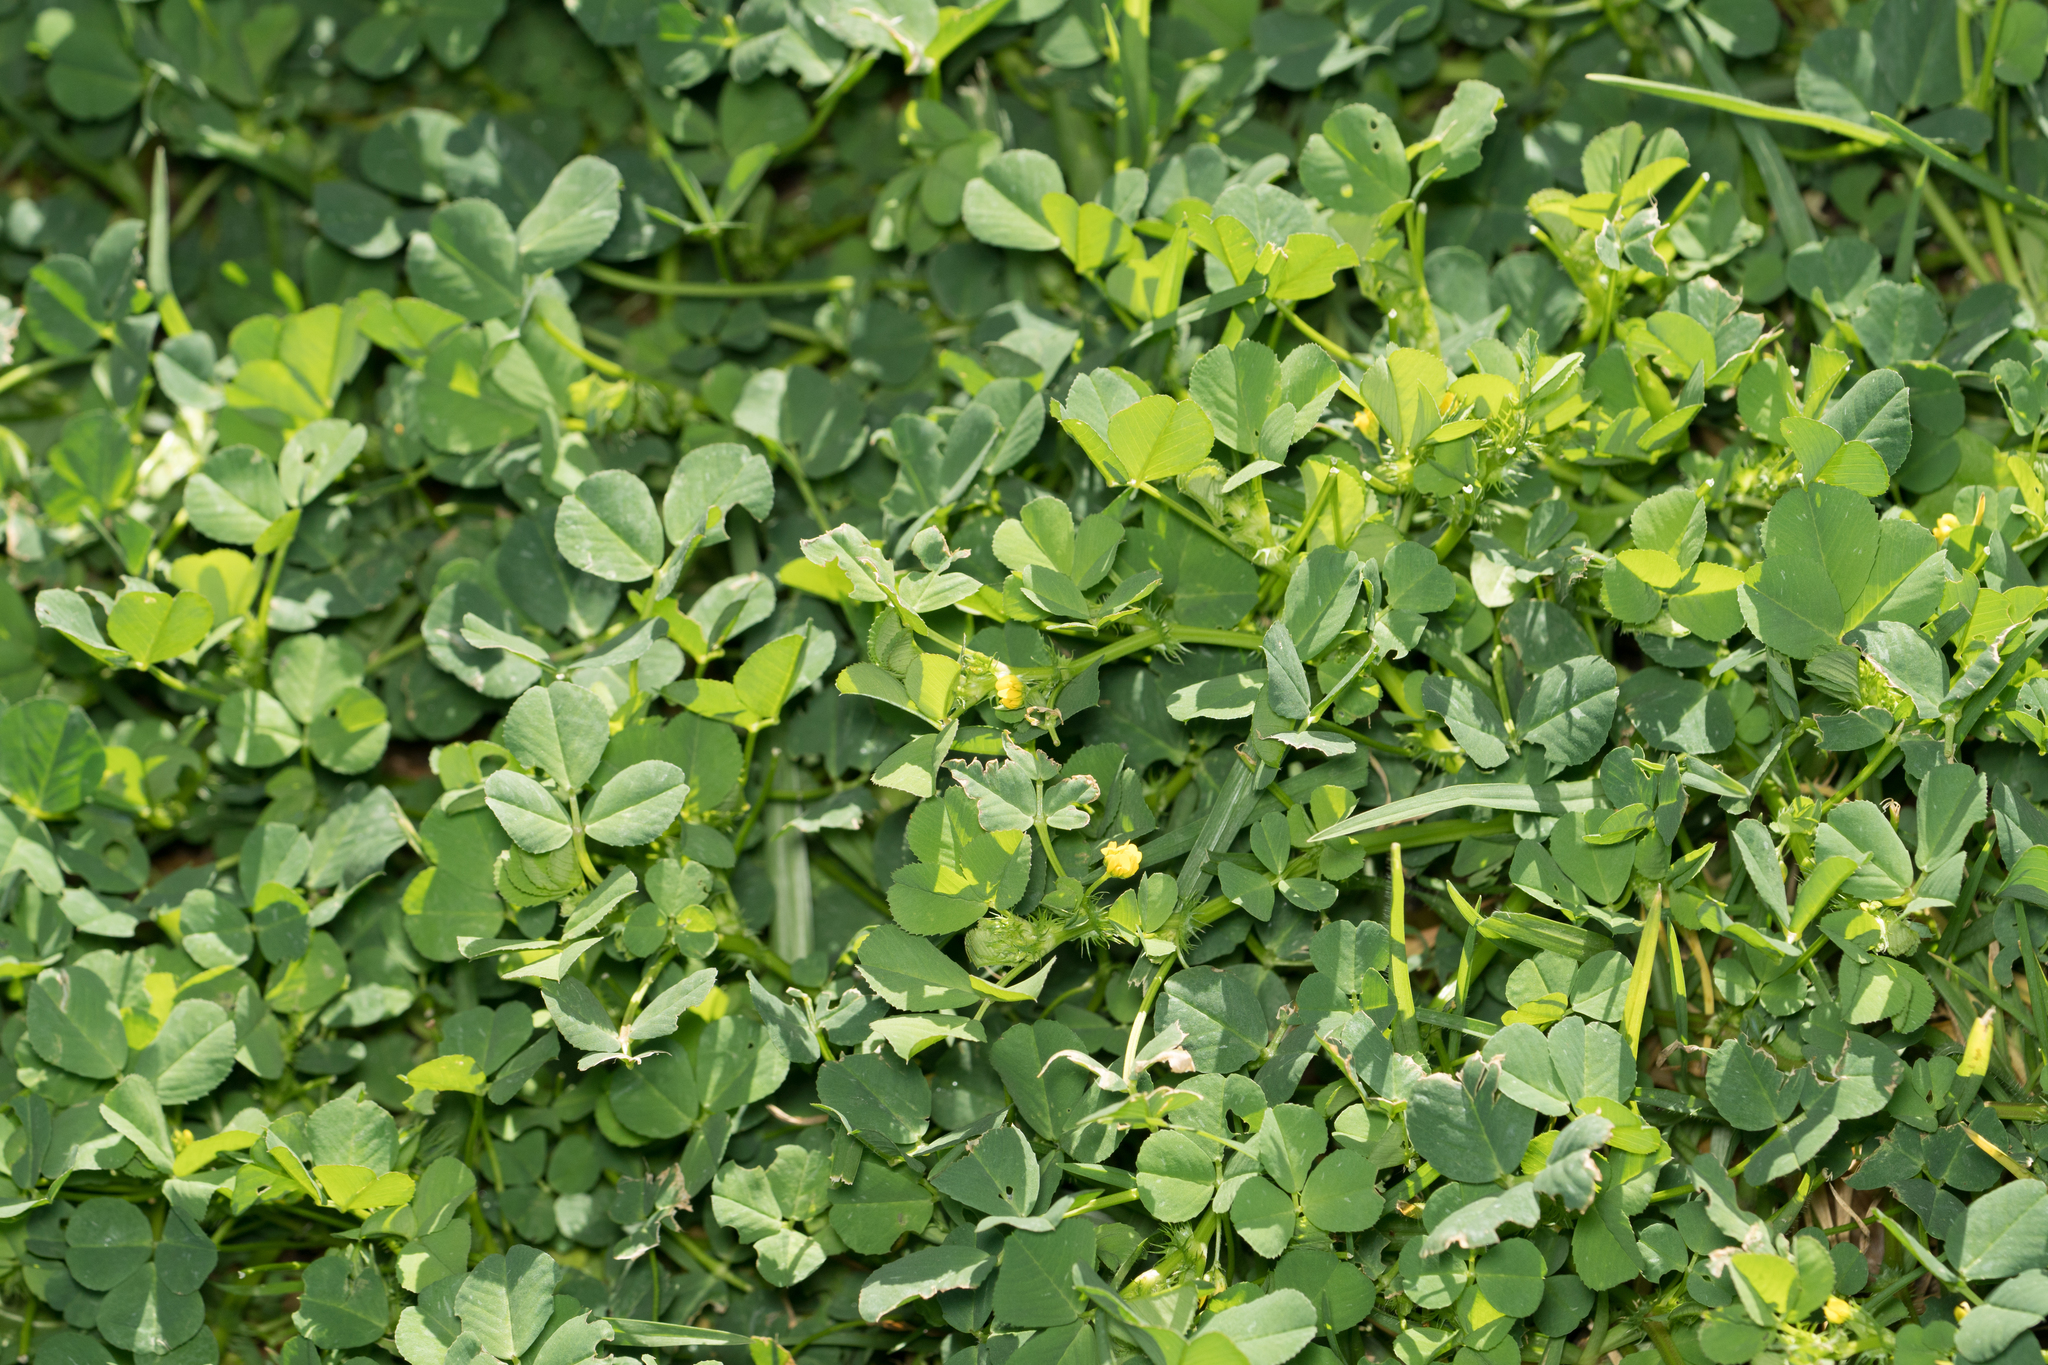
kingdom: Plantae
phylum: Tracheophyta
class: Magnoliopsida
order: Fabales
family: Fabaceae
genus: Medicago
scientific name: Medicago polymorpha
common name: Burclover
